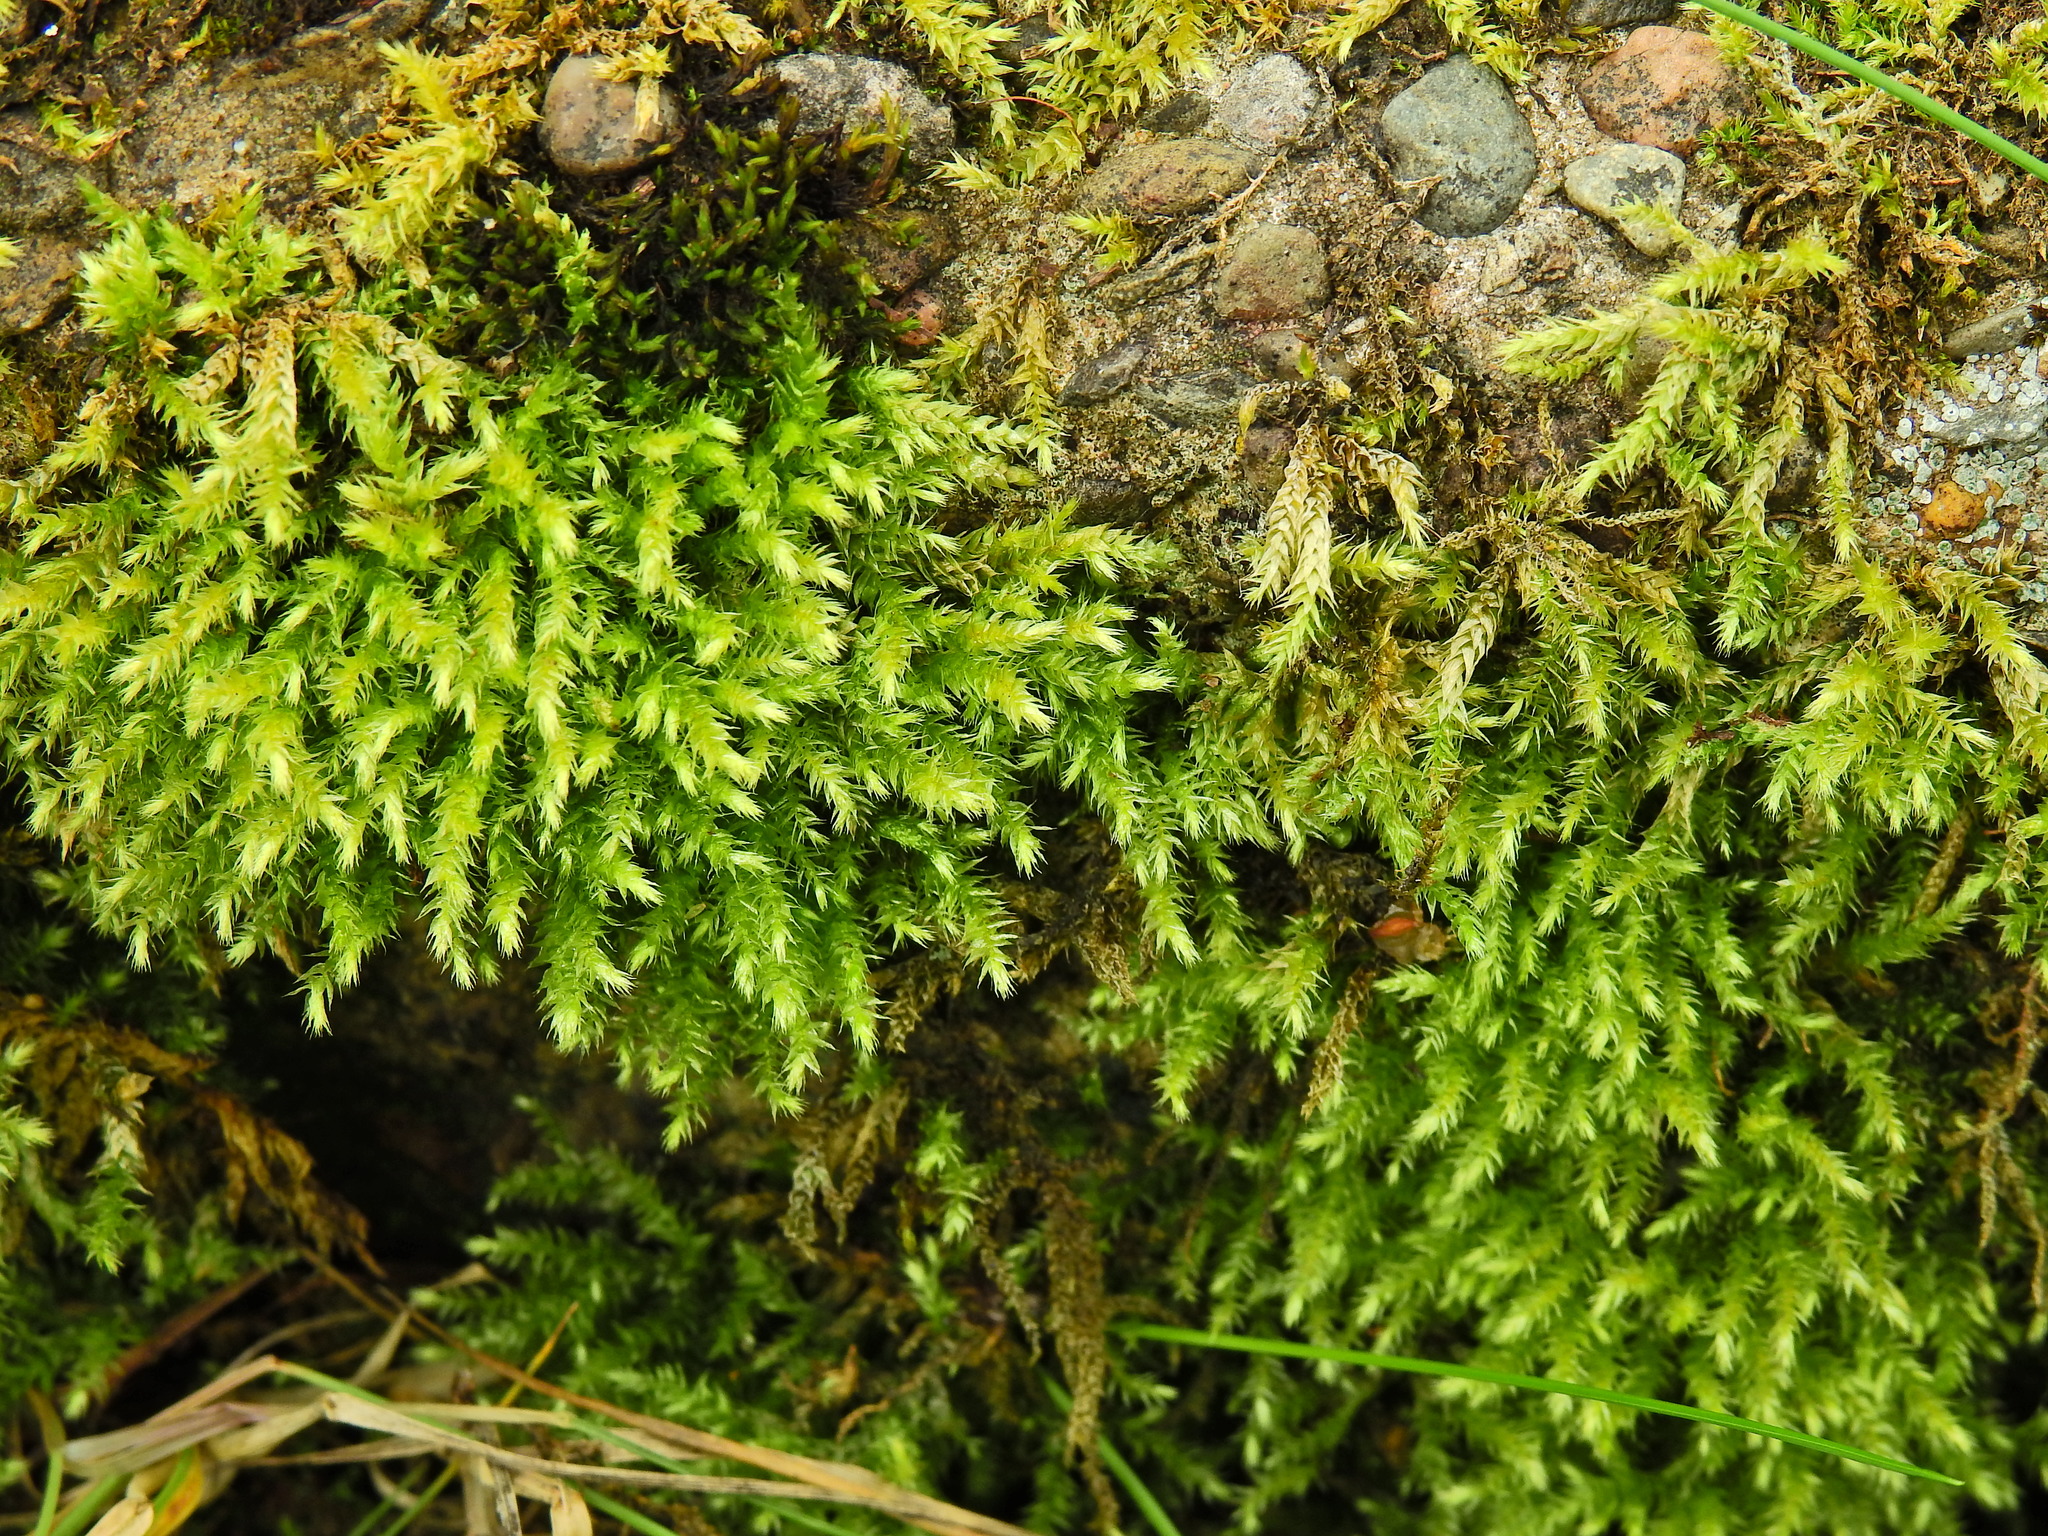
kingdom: Plantae
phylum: Bryophyta
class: Bryopsida
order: Hypnales
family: Brachytheciaceae
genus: Brachythecium
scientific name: Brachythecium rutabulum
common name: Rough-stalked feather-moss
